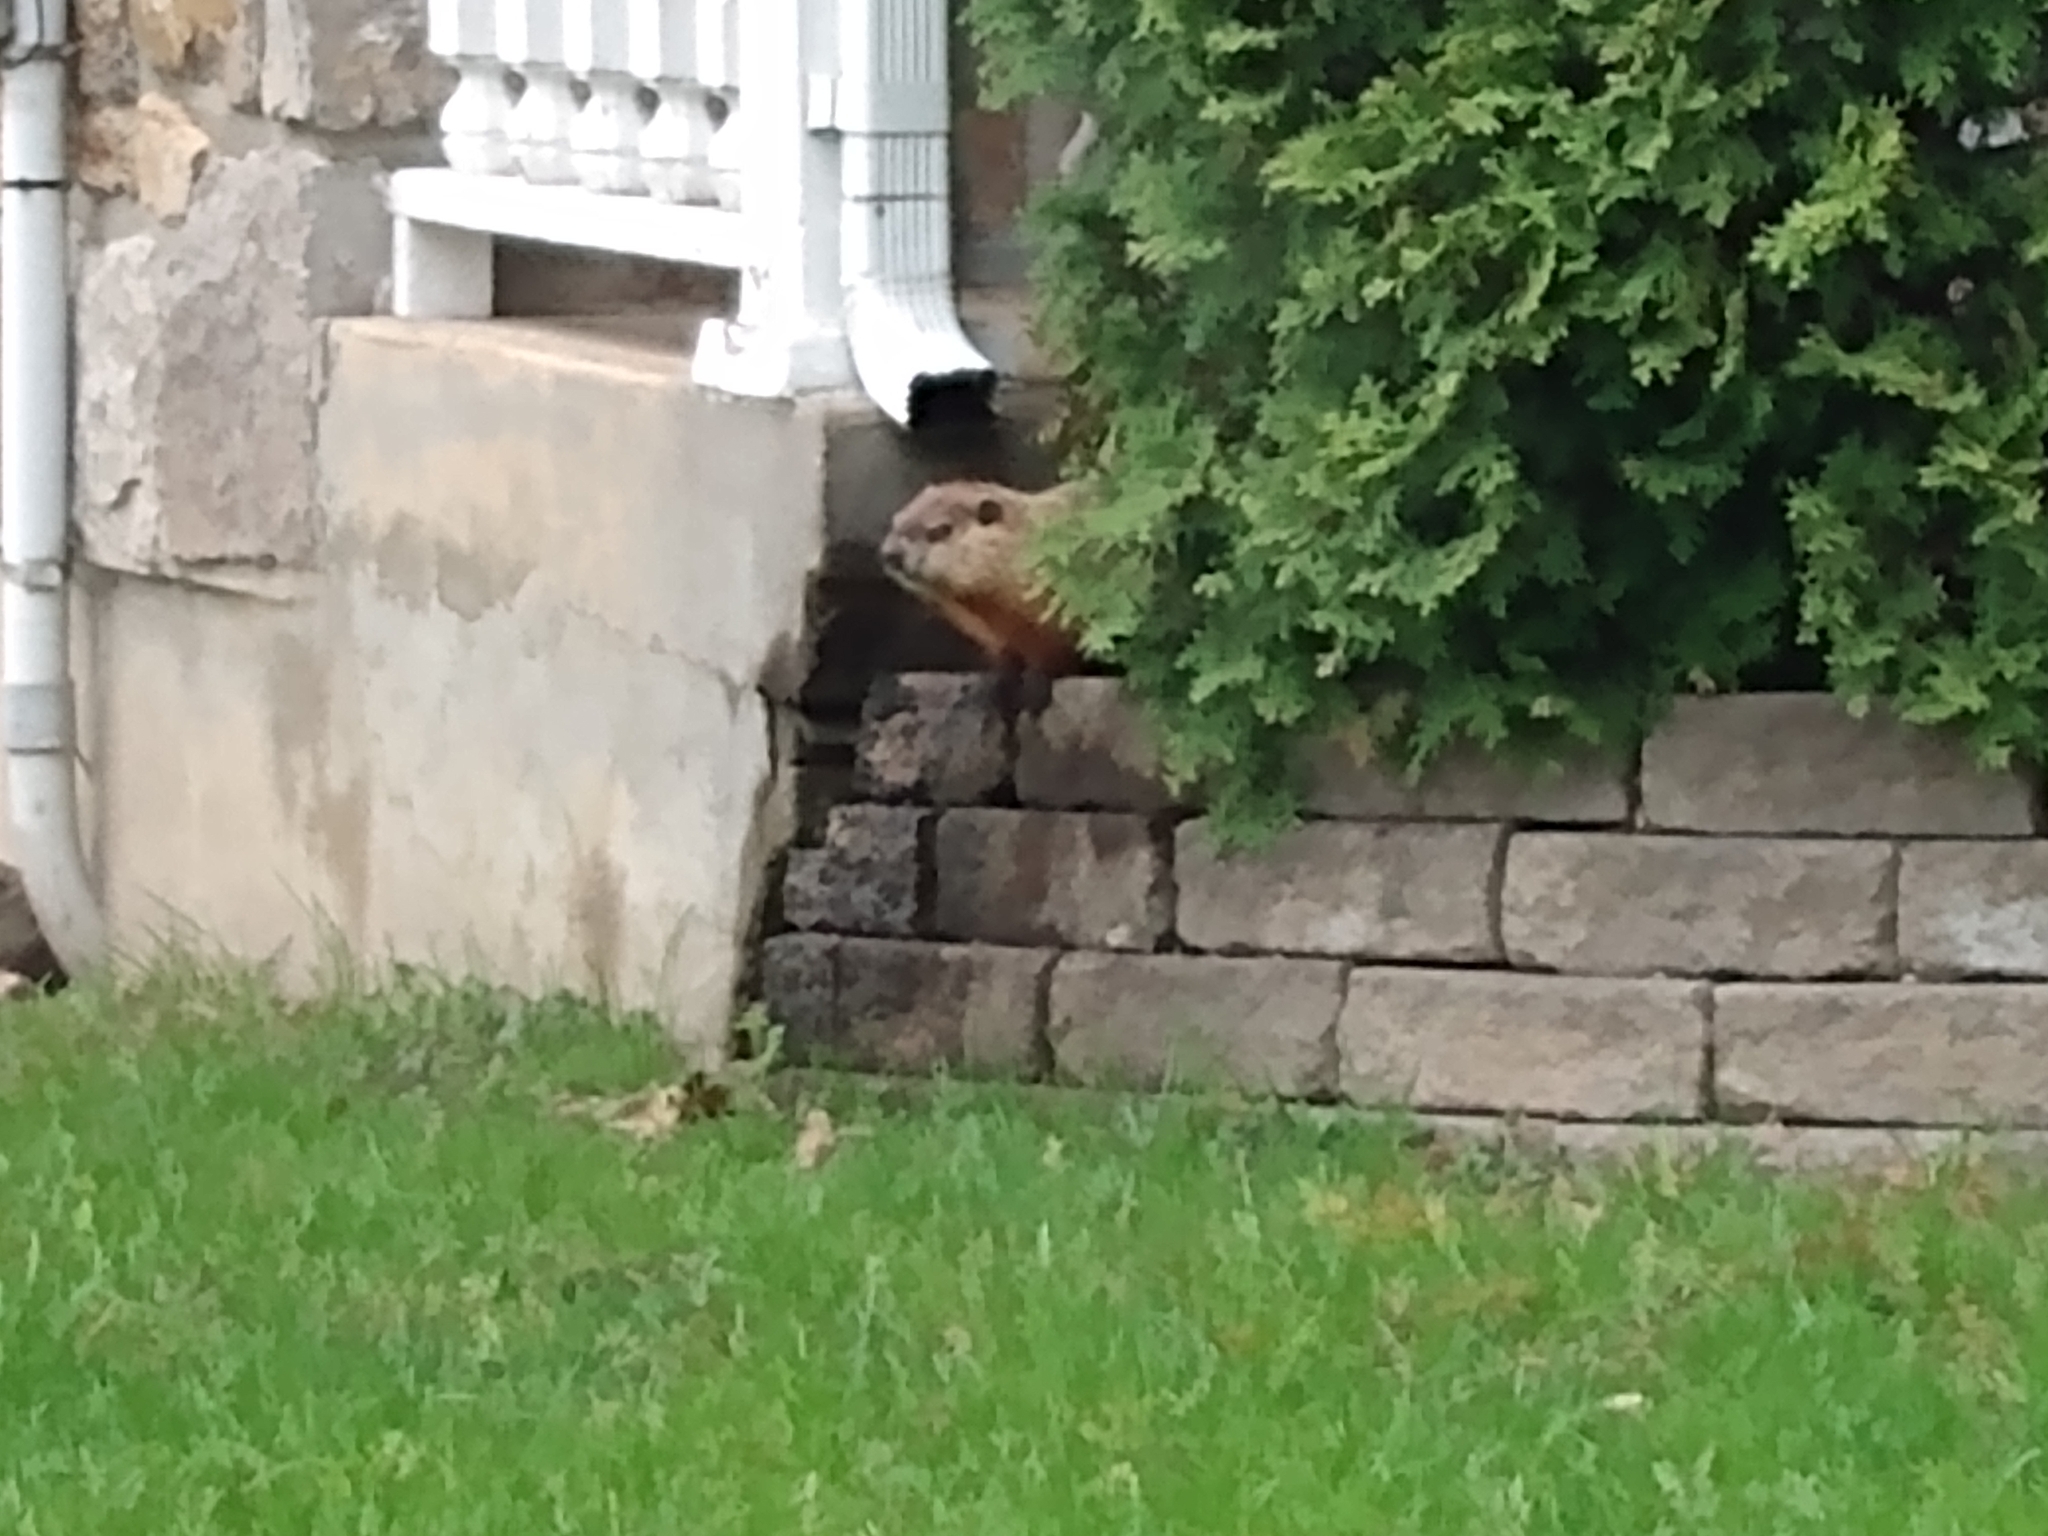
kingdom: Animalia
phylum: Chordata
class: Mammalia
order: Rodentia
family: Sciuridae
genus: Marmota
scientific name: Marmota monax
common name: Groundhog
